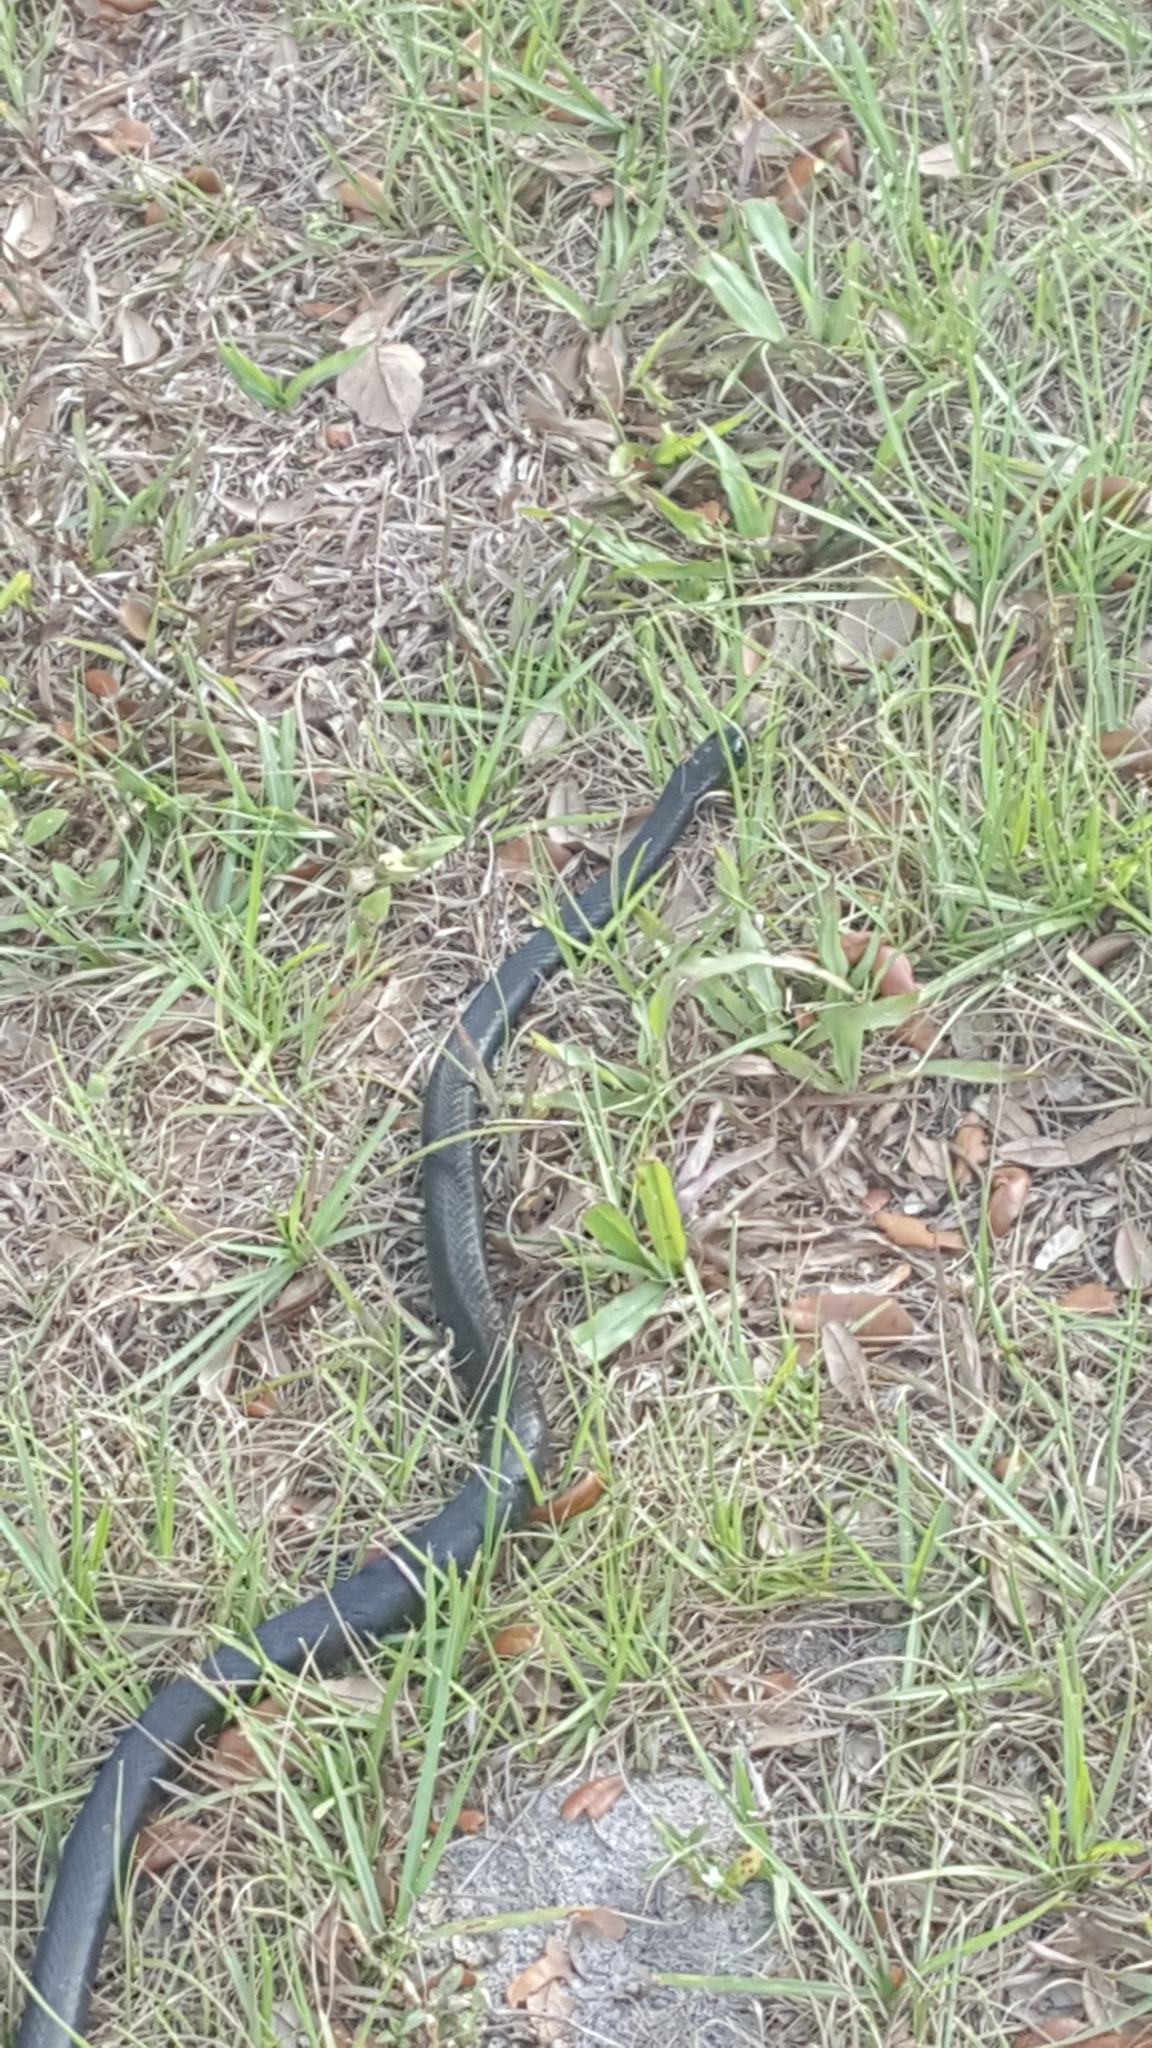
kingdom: Animalia
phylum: Chordata
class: Squamata
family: Colubridae
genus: Coluber
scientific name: Coluber constrictor
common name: Eastern racer
